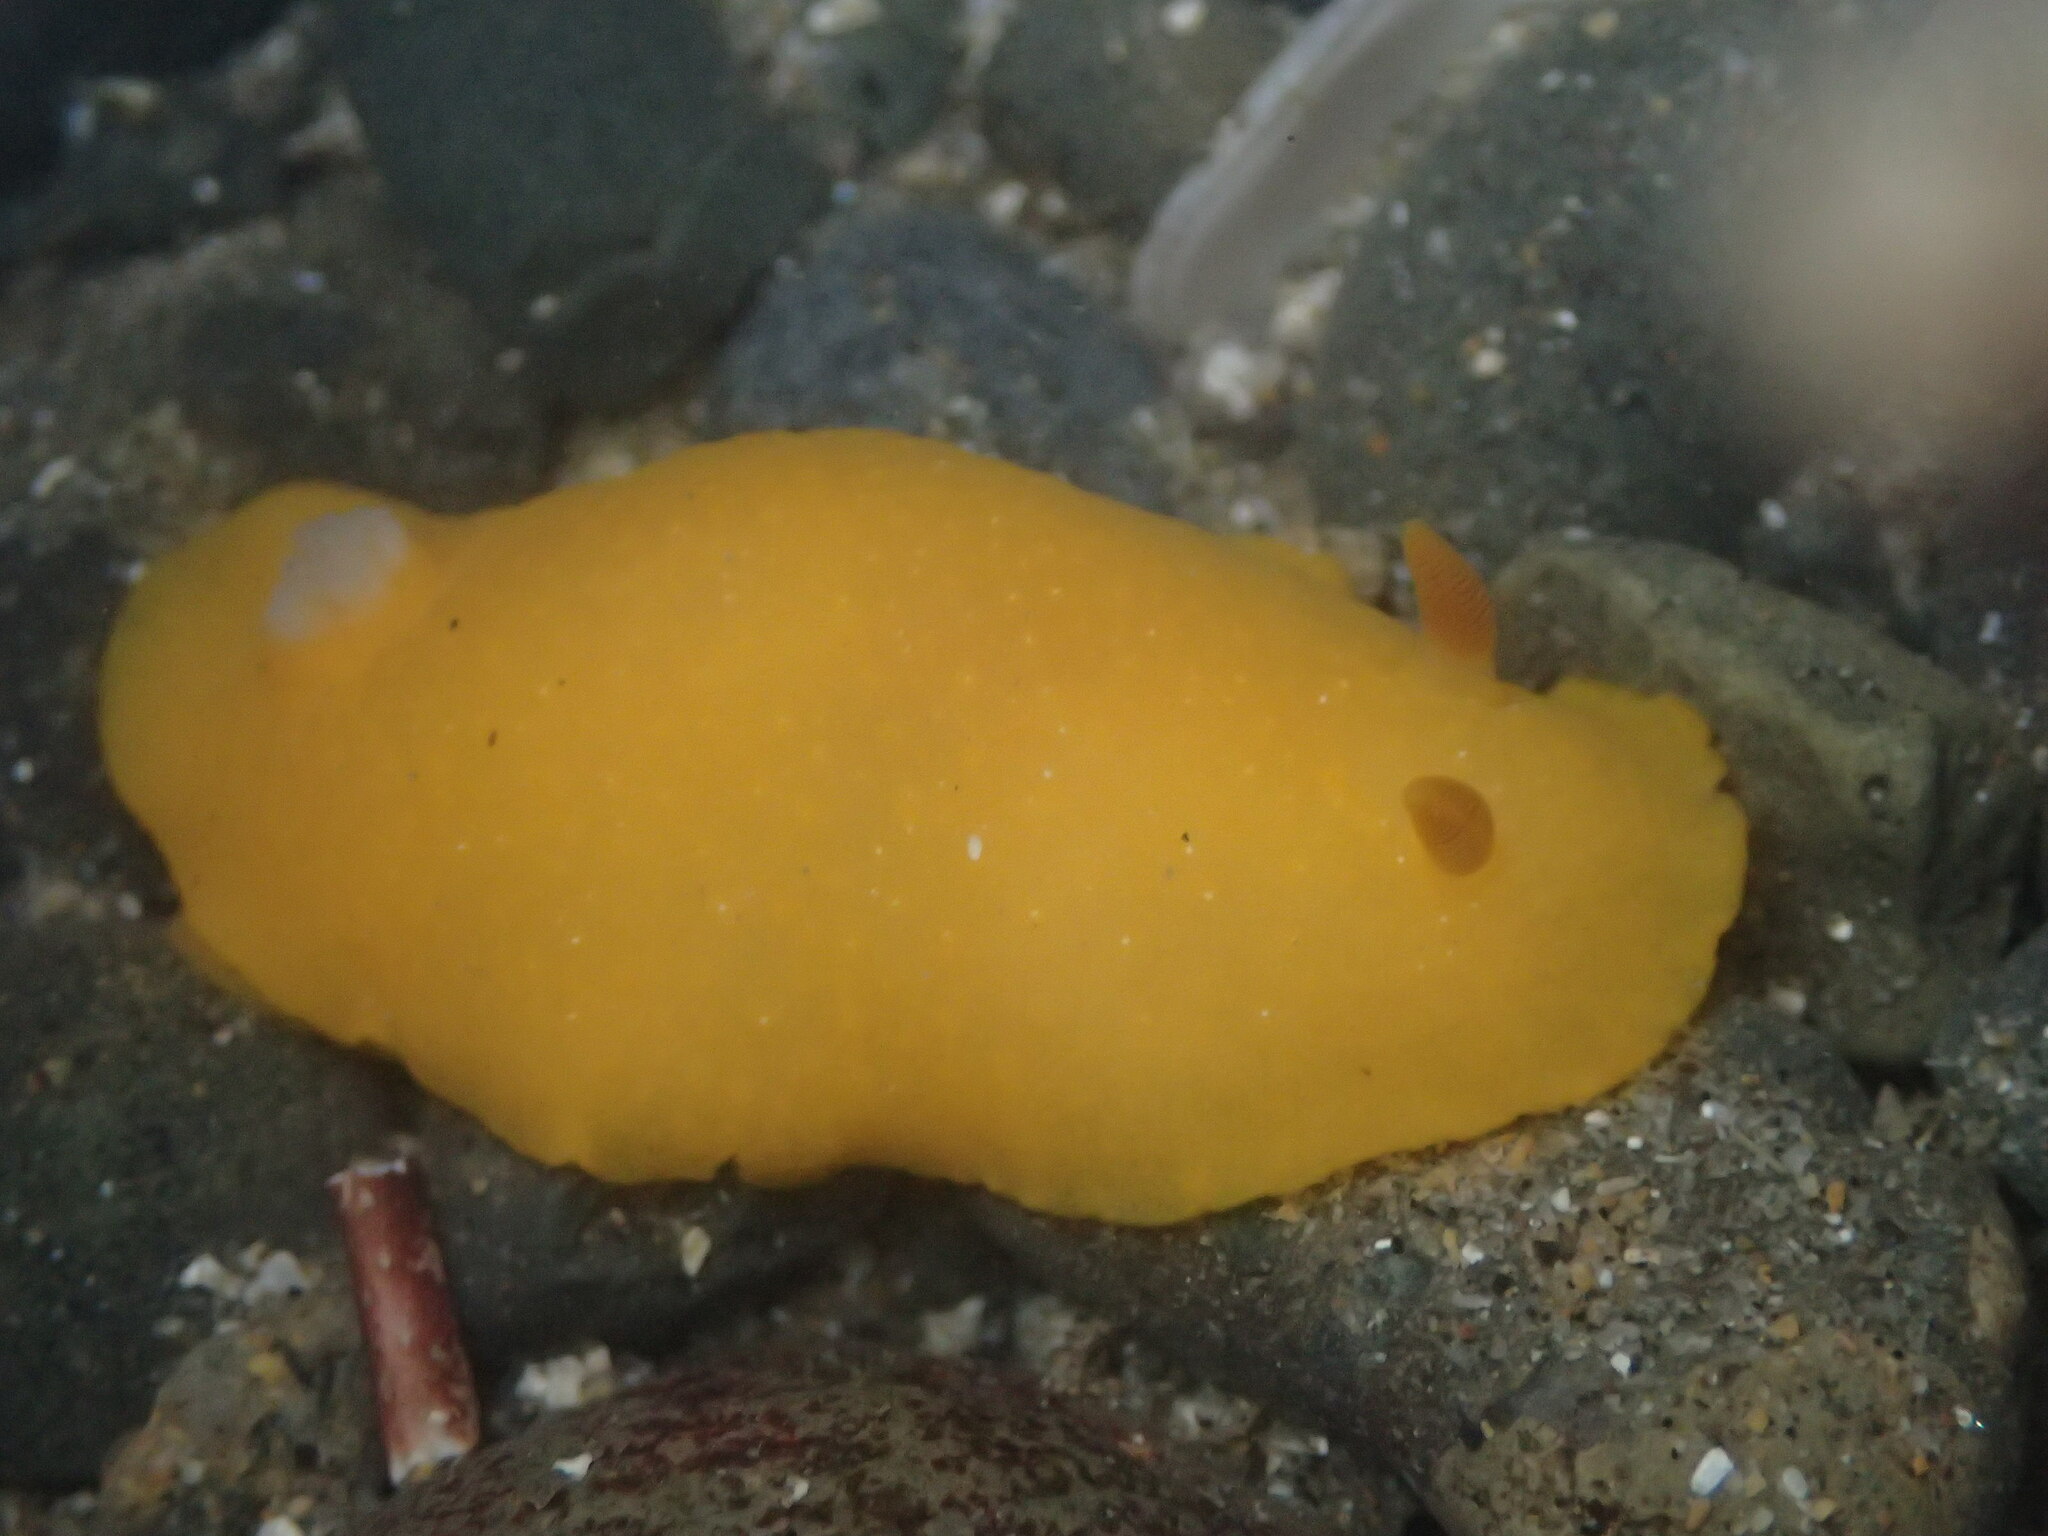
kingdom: Animalia
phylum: Mollusca
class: Gastropoda
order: Nudibranchia
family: Dendrodorididae
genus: Doriopsilla
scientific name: Doriopsilla fulva
